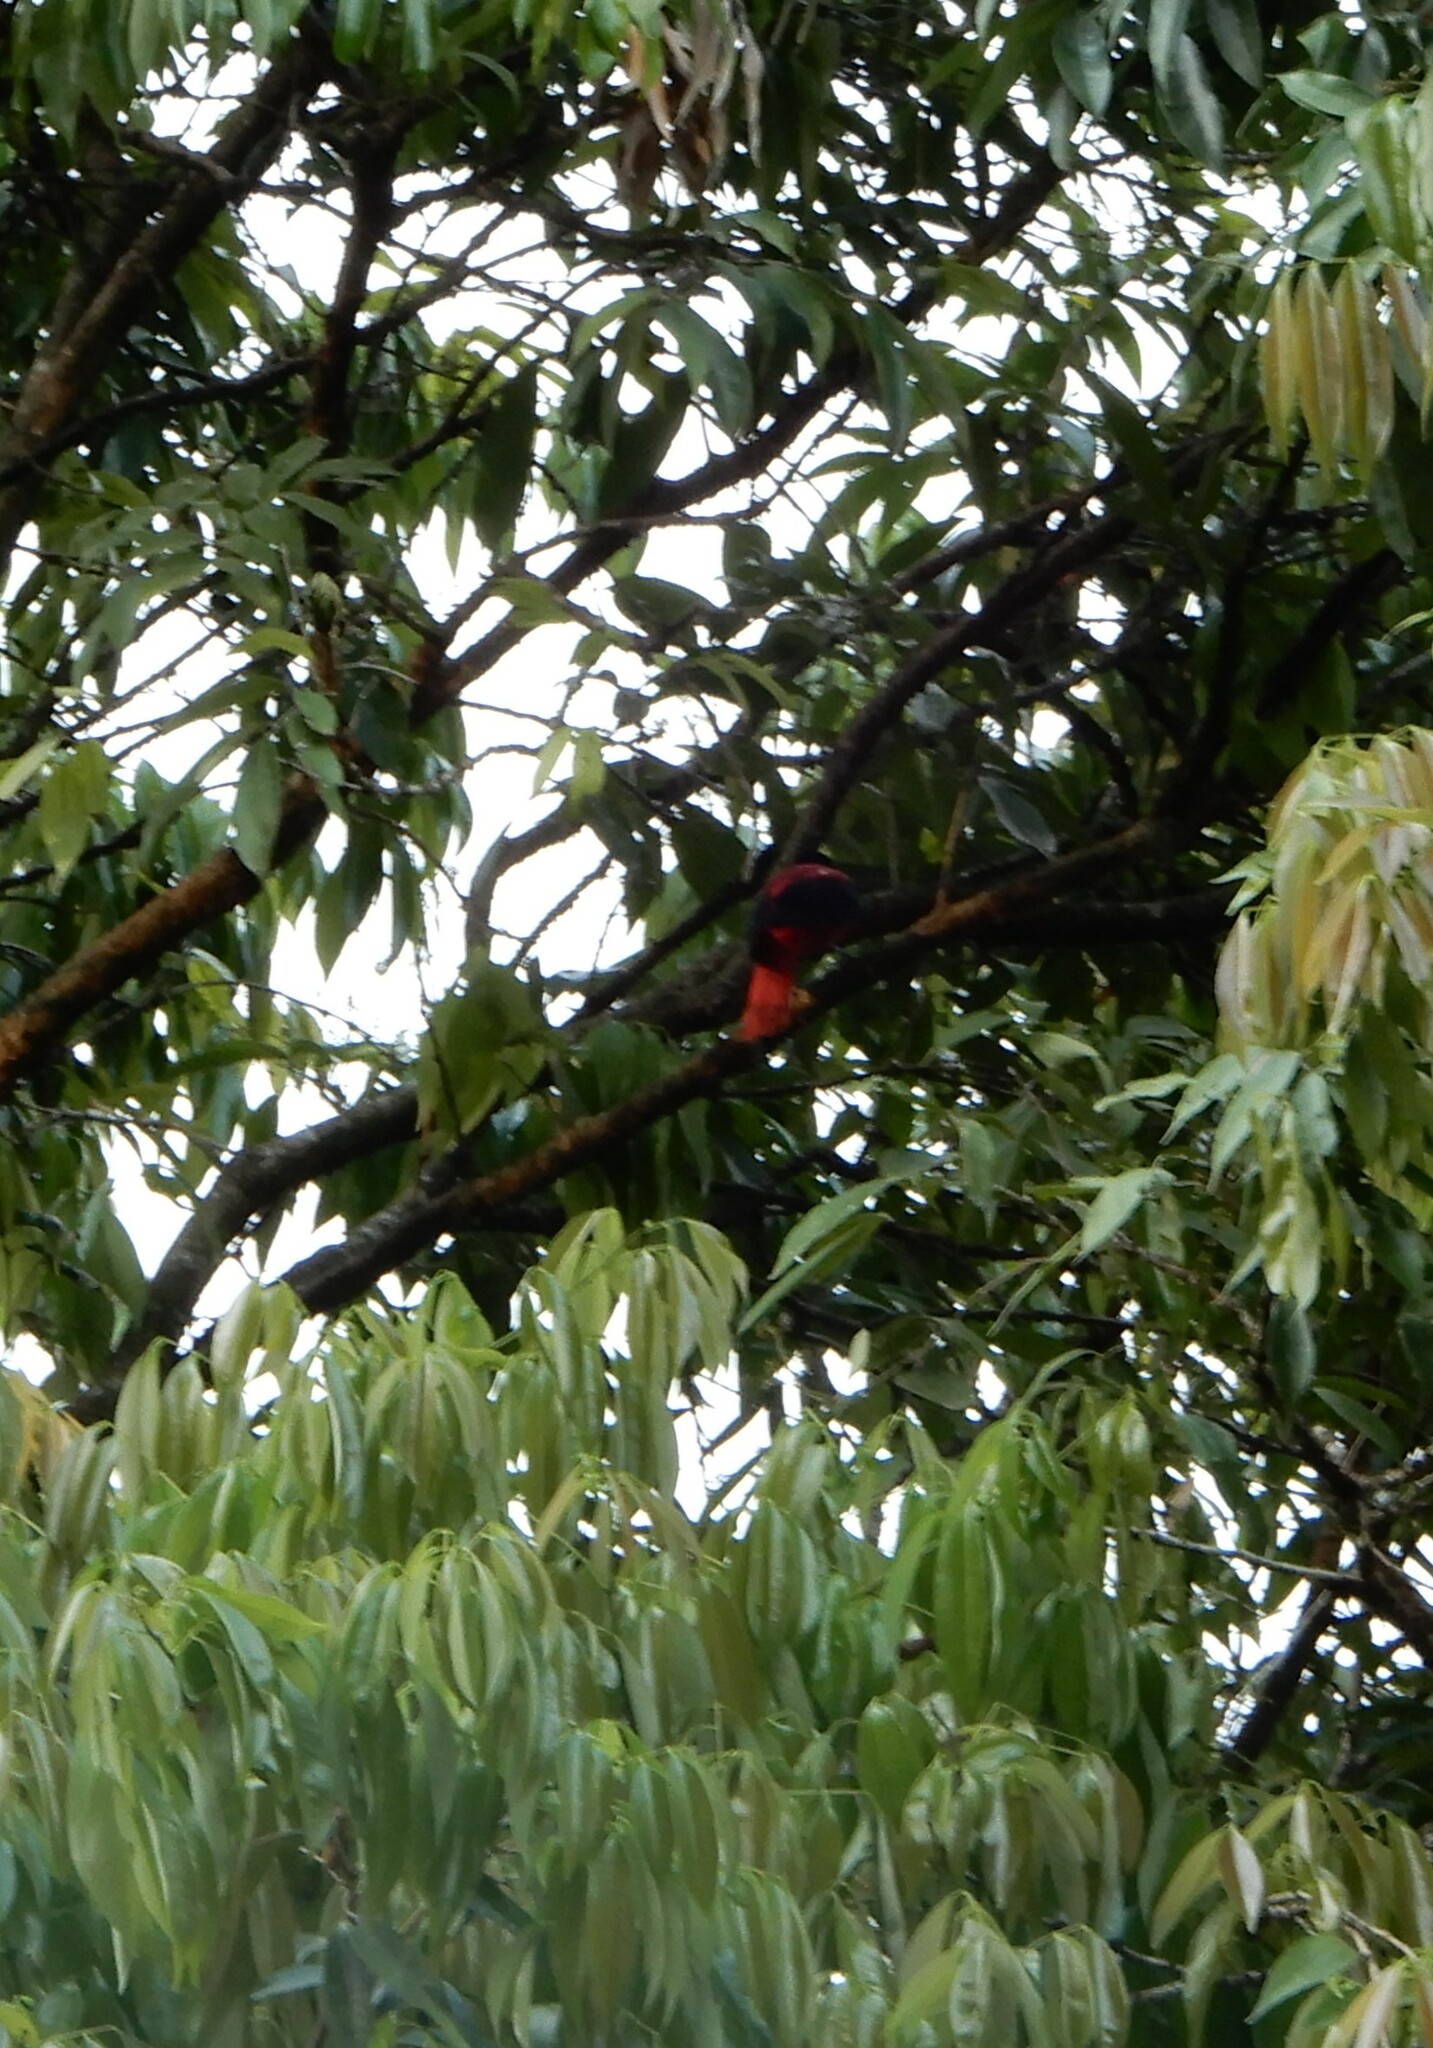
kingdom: Animalia
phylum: Chordata
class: Aves
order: Passeriformes
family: Oriolidae
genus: Oriolus
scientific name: Oriolus traillii
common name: Maroon oriole
